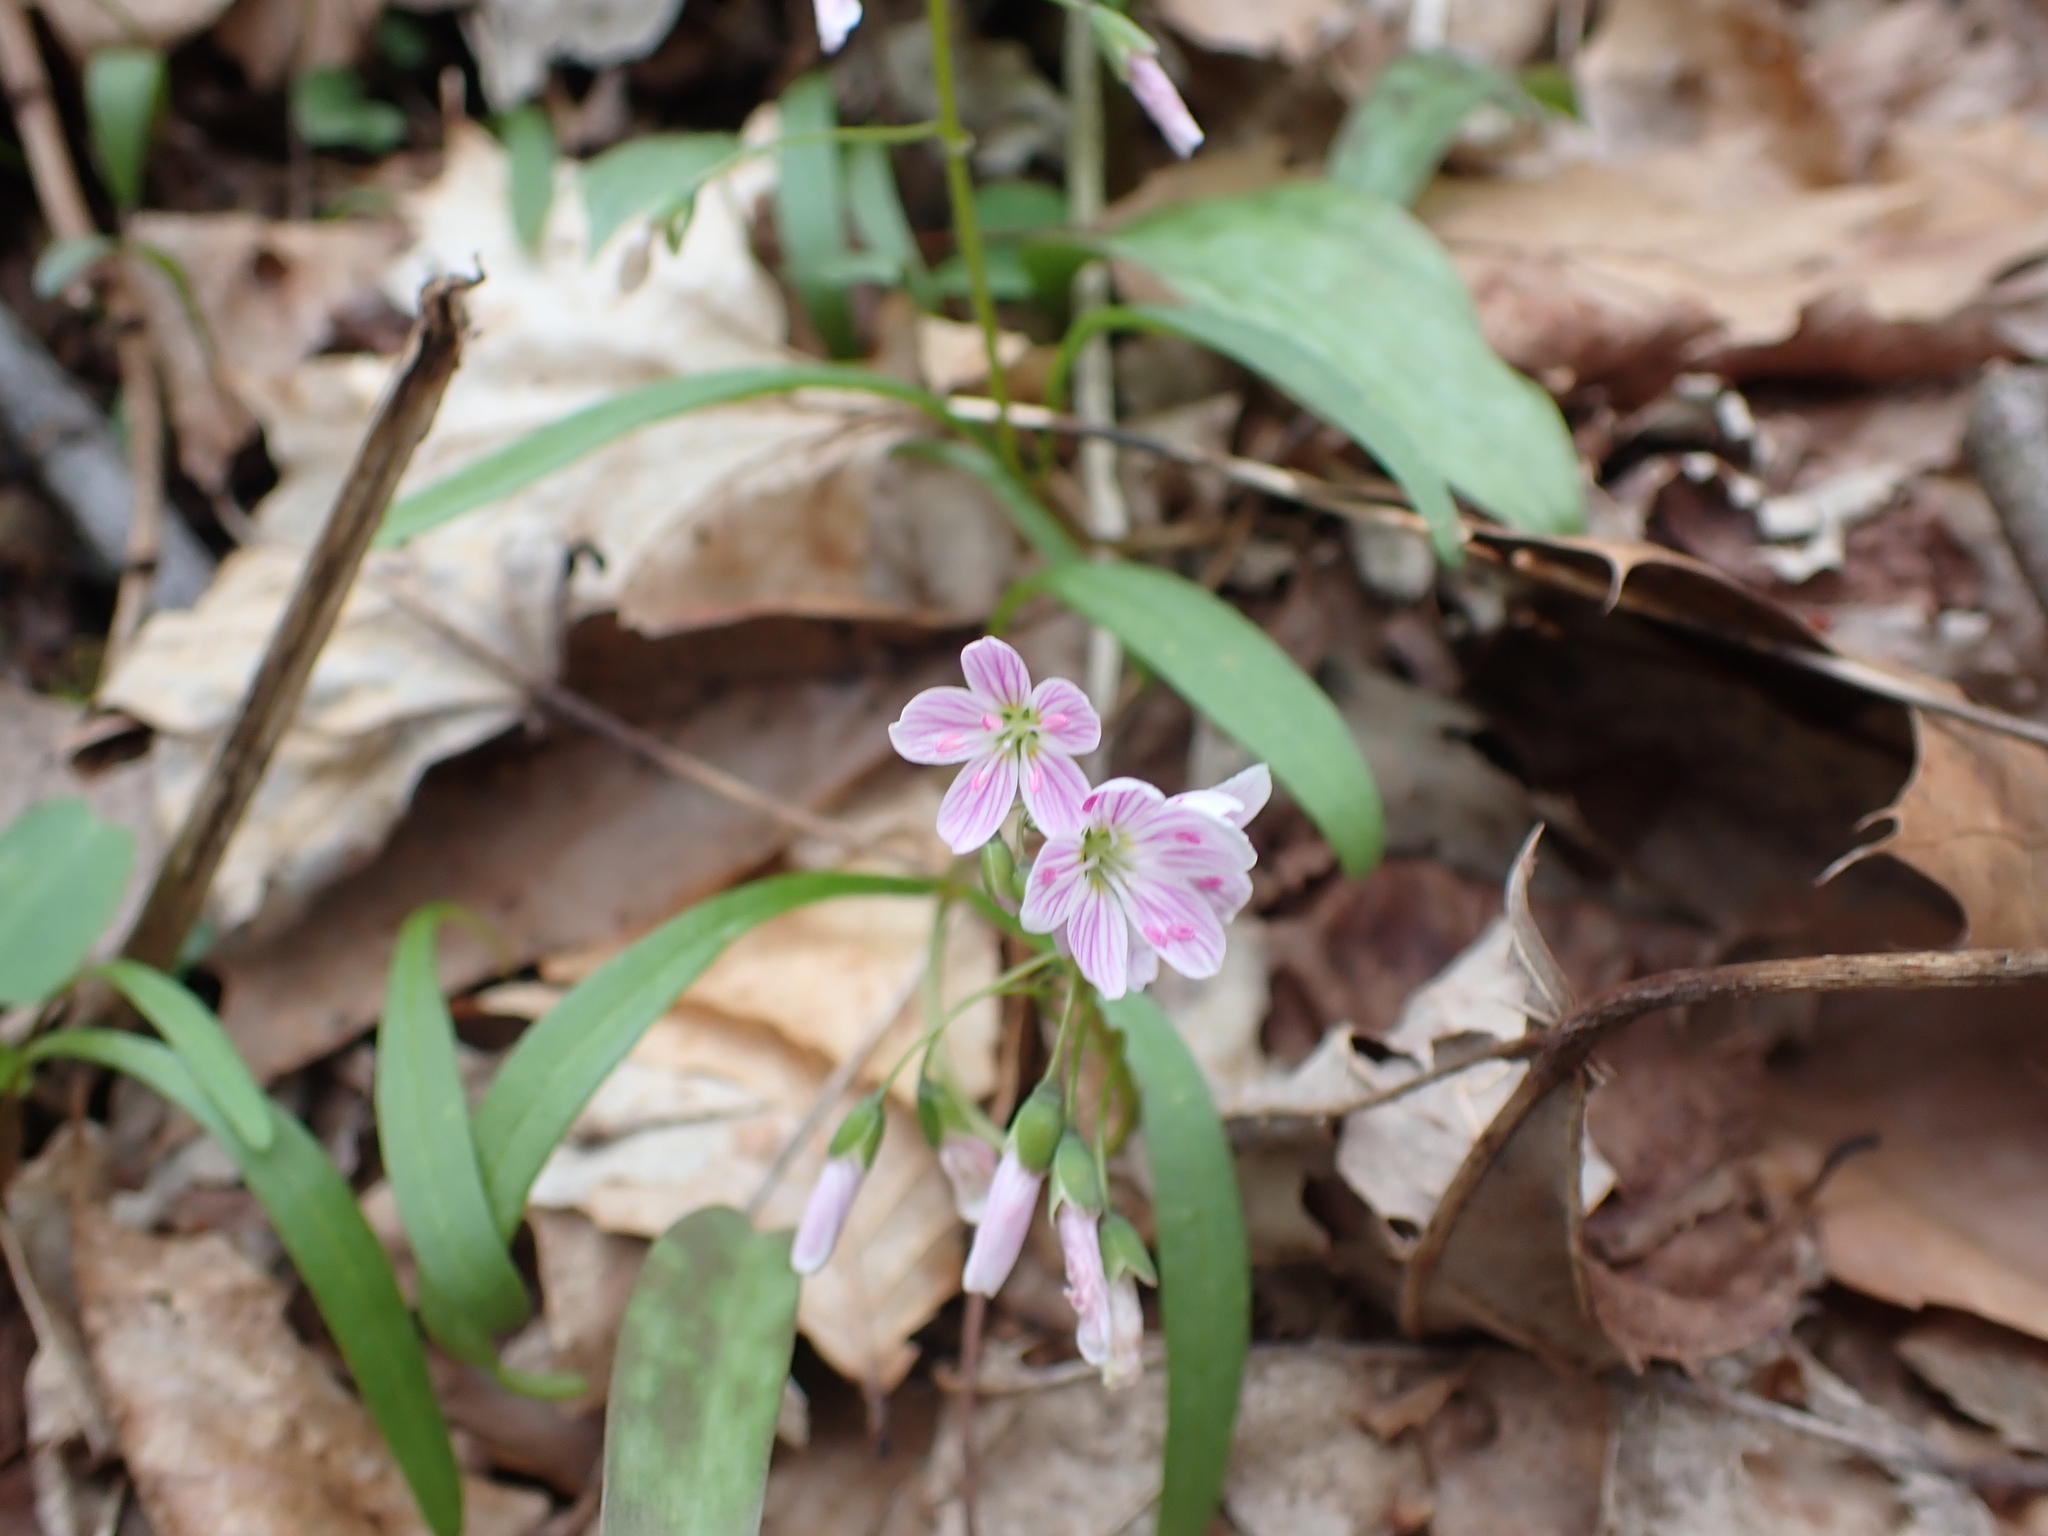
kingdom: Plantae
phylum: Tracheophyta
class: Magnoliopsida
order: Caryophyllales
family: Montiaceae
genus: Claytonia
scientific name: Claytonia virginica
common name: Virginia springbeauty
